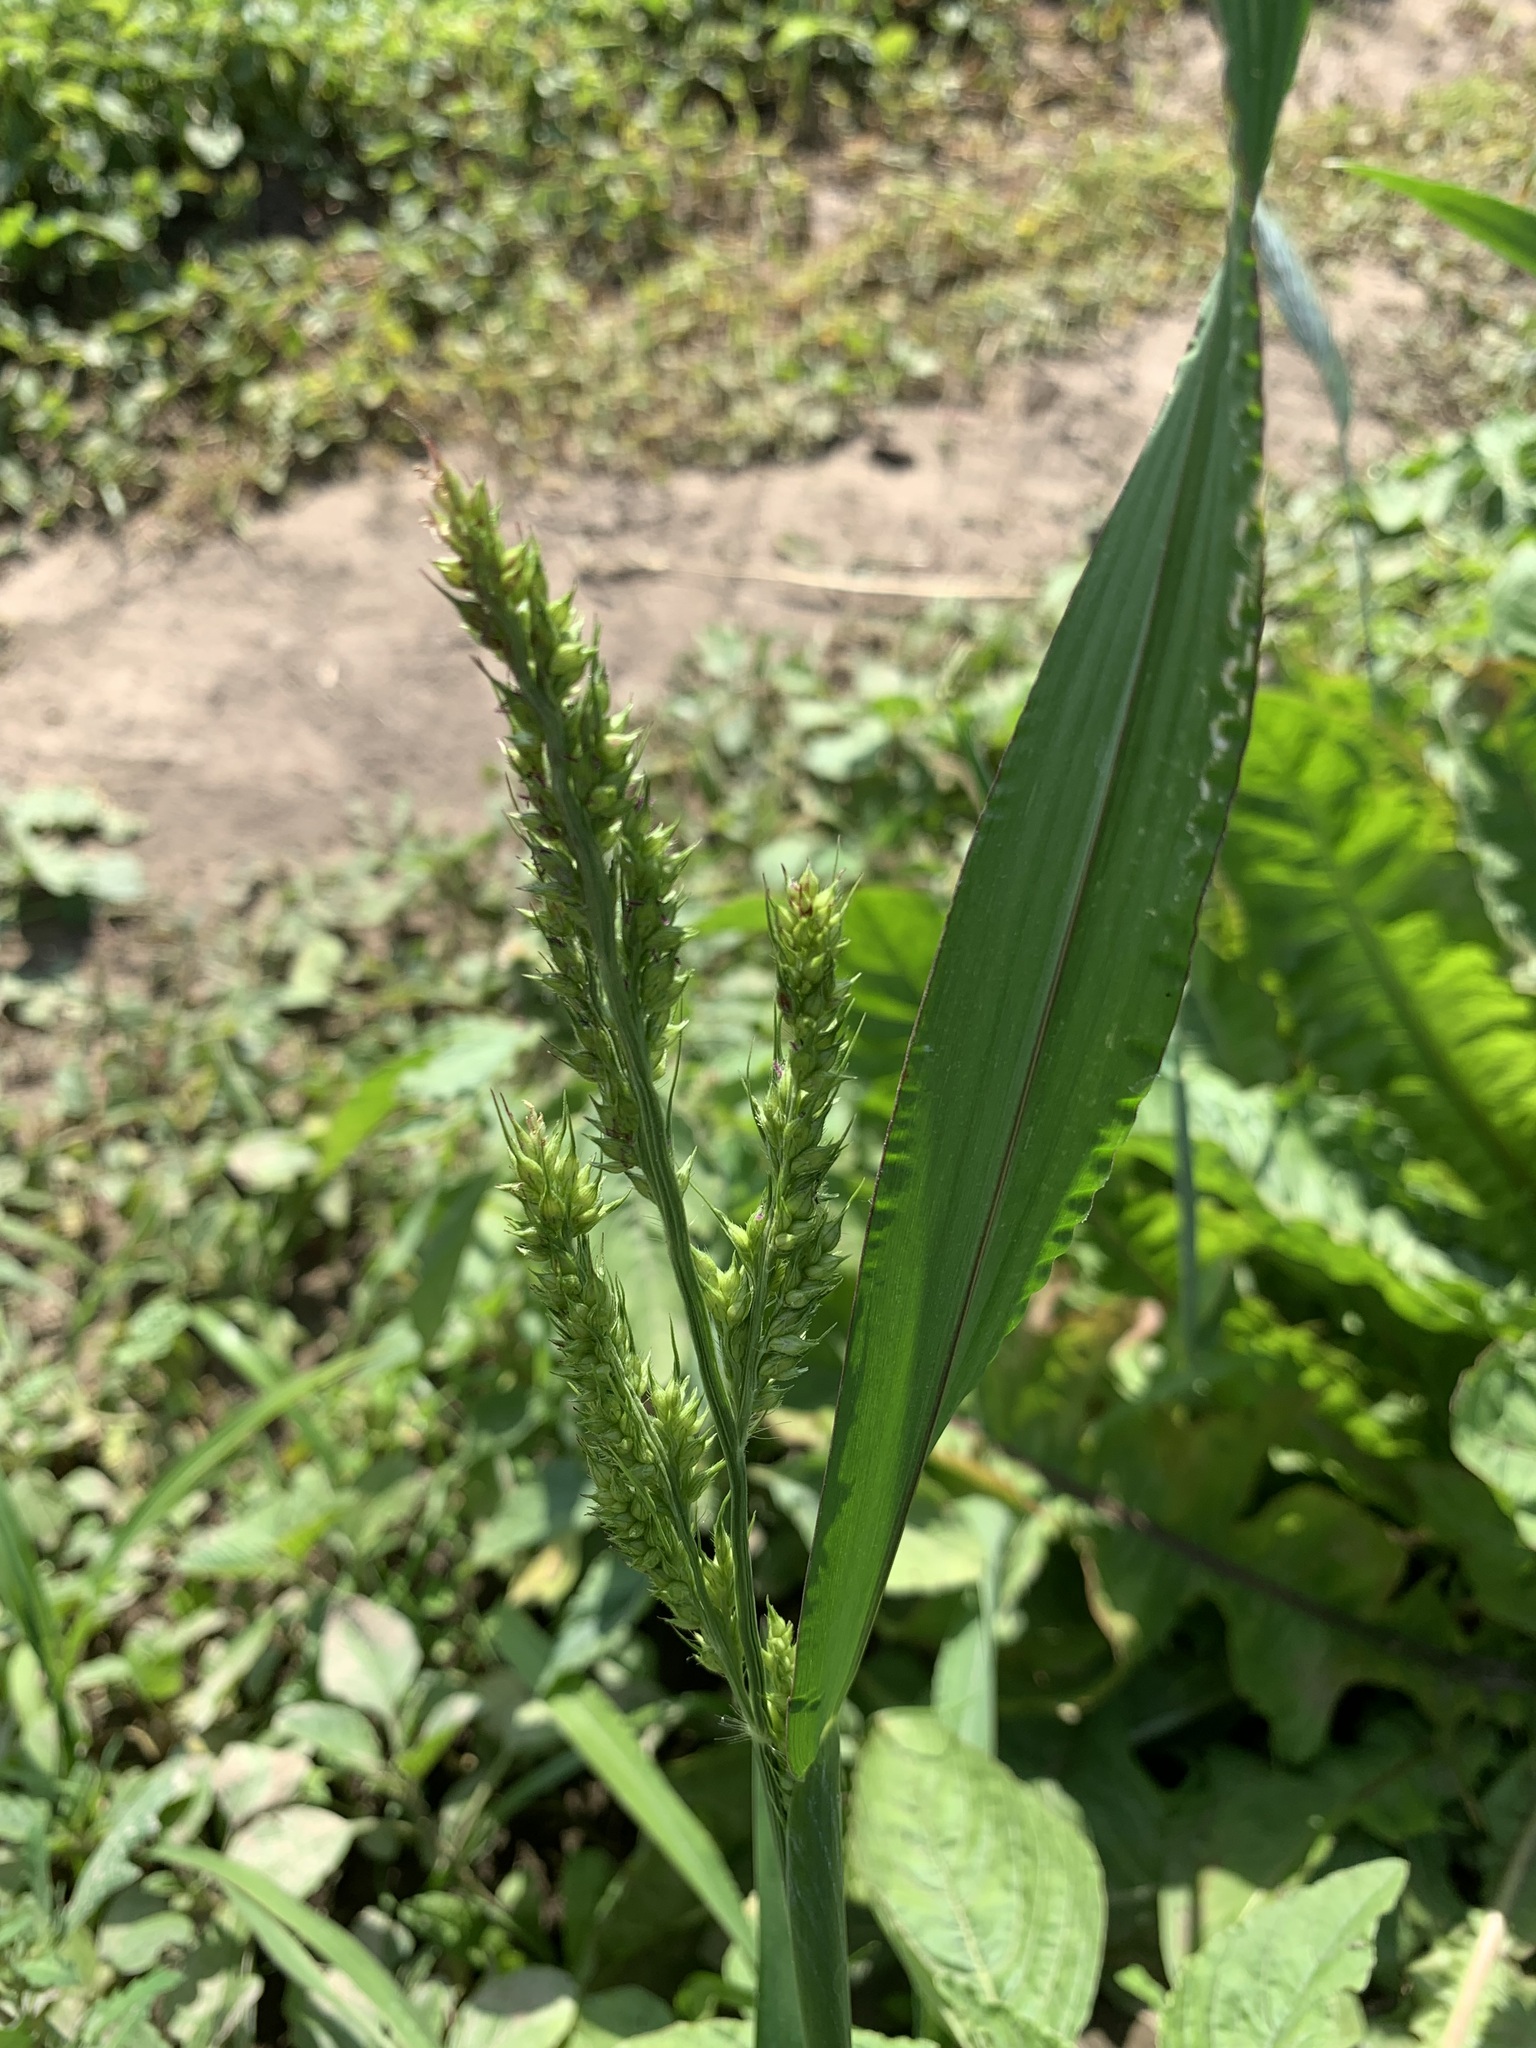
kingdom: Plantae
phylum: Tracheophyta
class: Liliopsida
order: Poales
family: Poaceae
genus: Echinochloa
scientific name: Echinochloa crus-galli
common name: Cockspur
